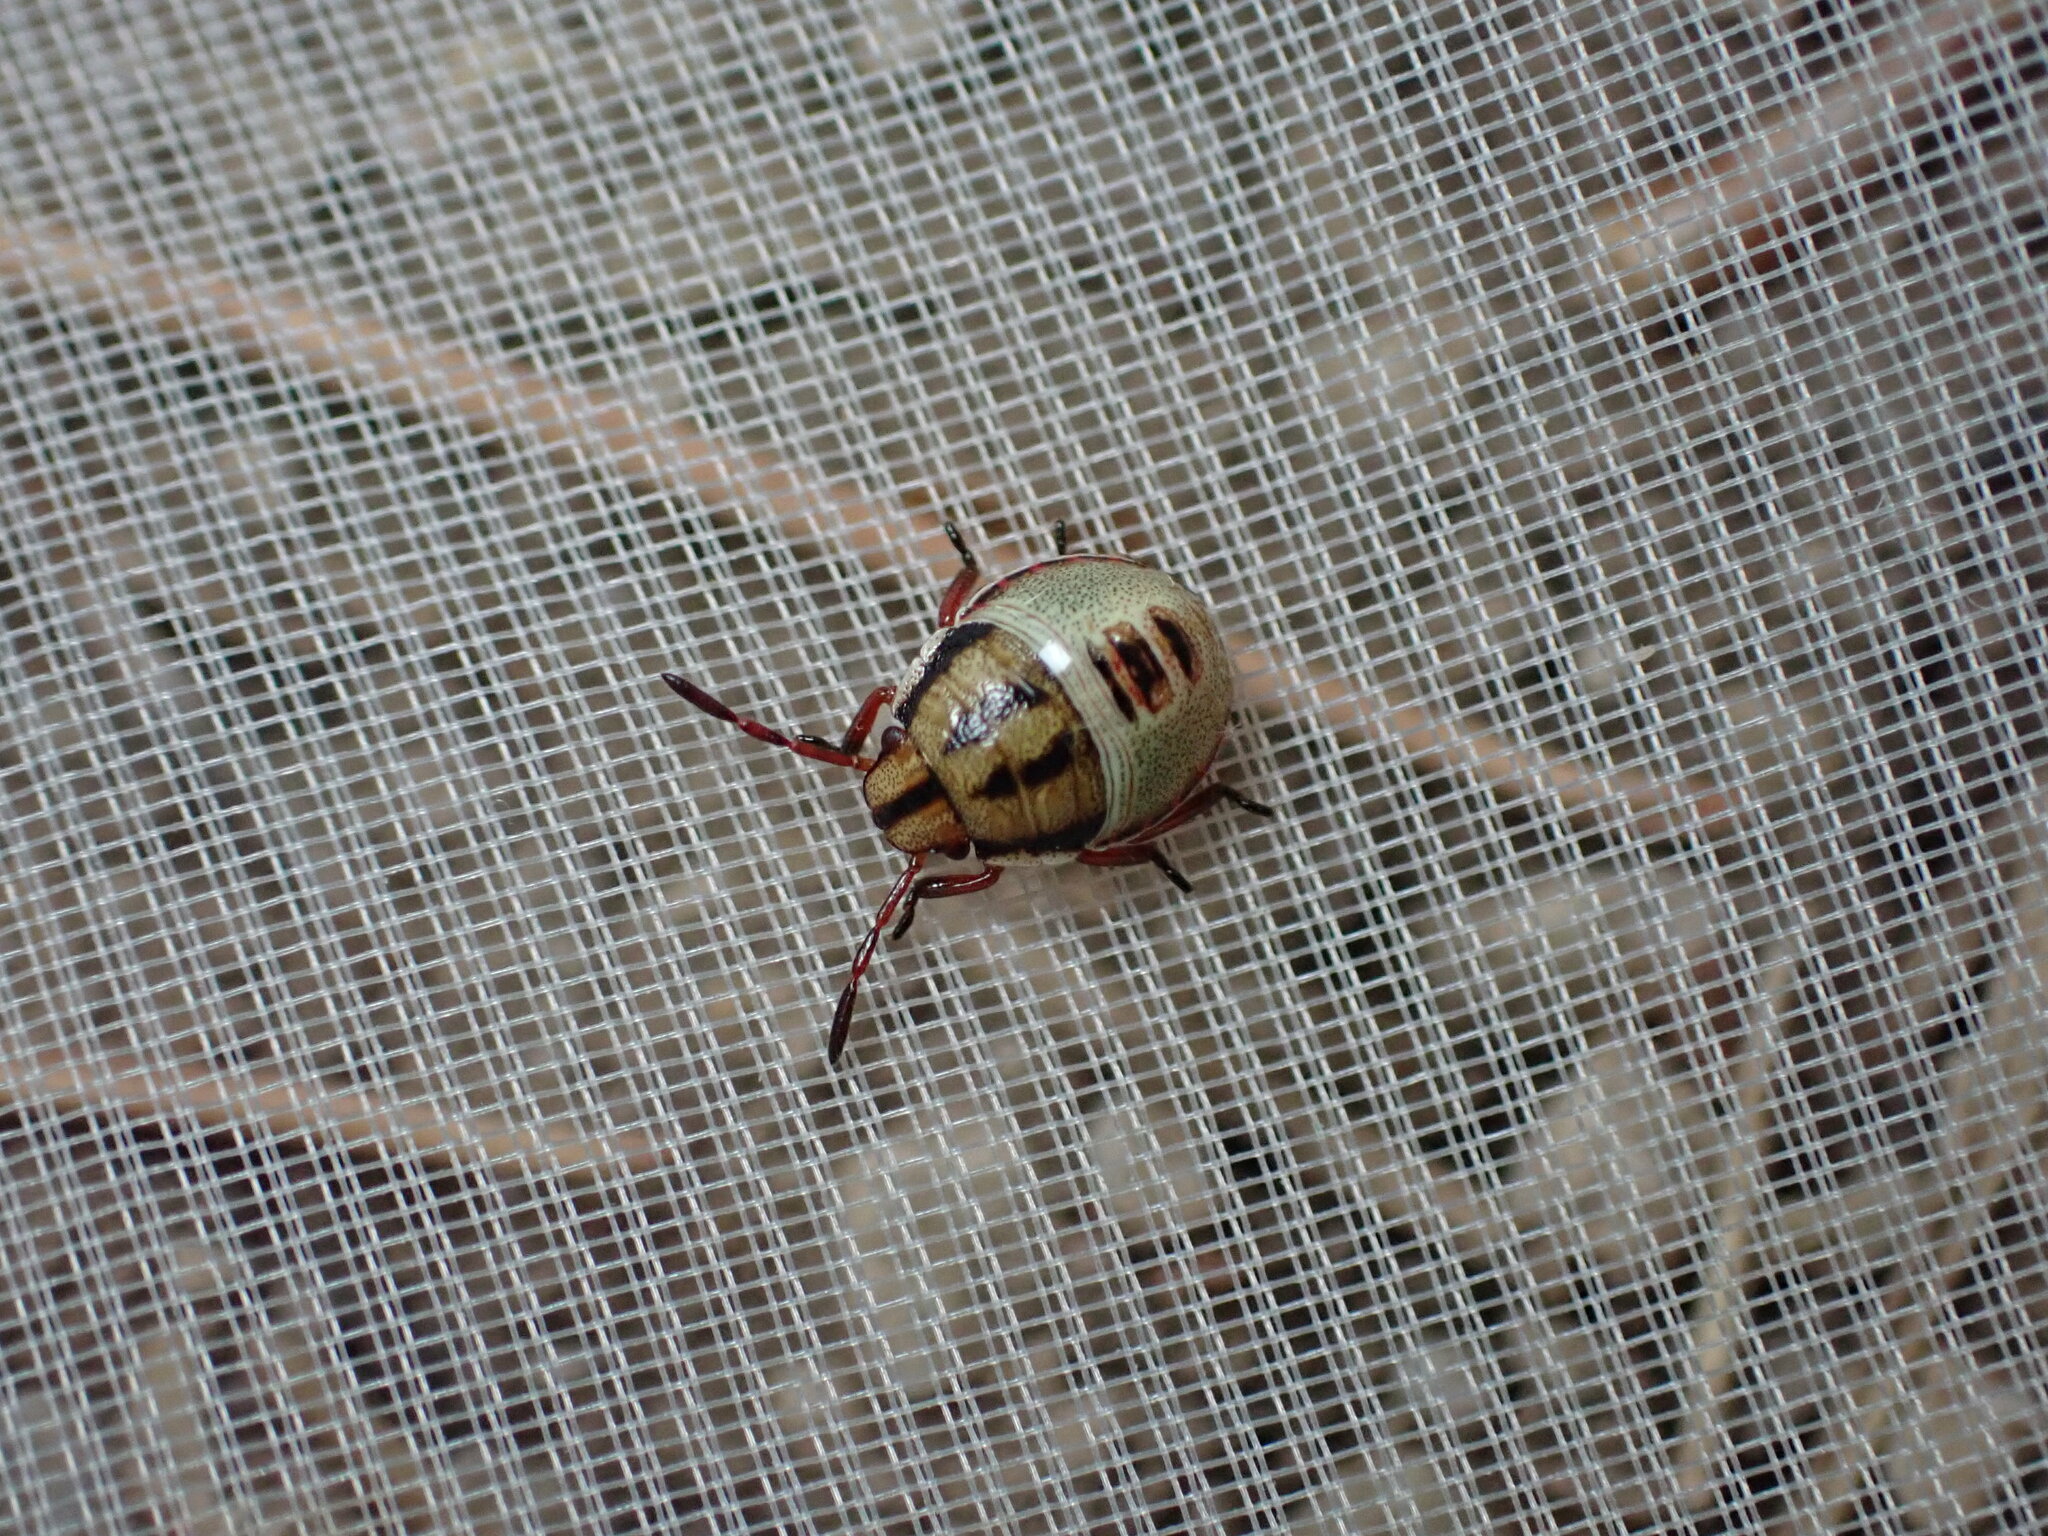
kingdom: Animalia
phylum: Arthropoda
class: Insecta
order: Hemiptera
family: Pentatomidae
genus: Piezodorus
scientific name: Piezodorus lituratus
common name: Stink bug
